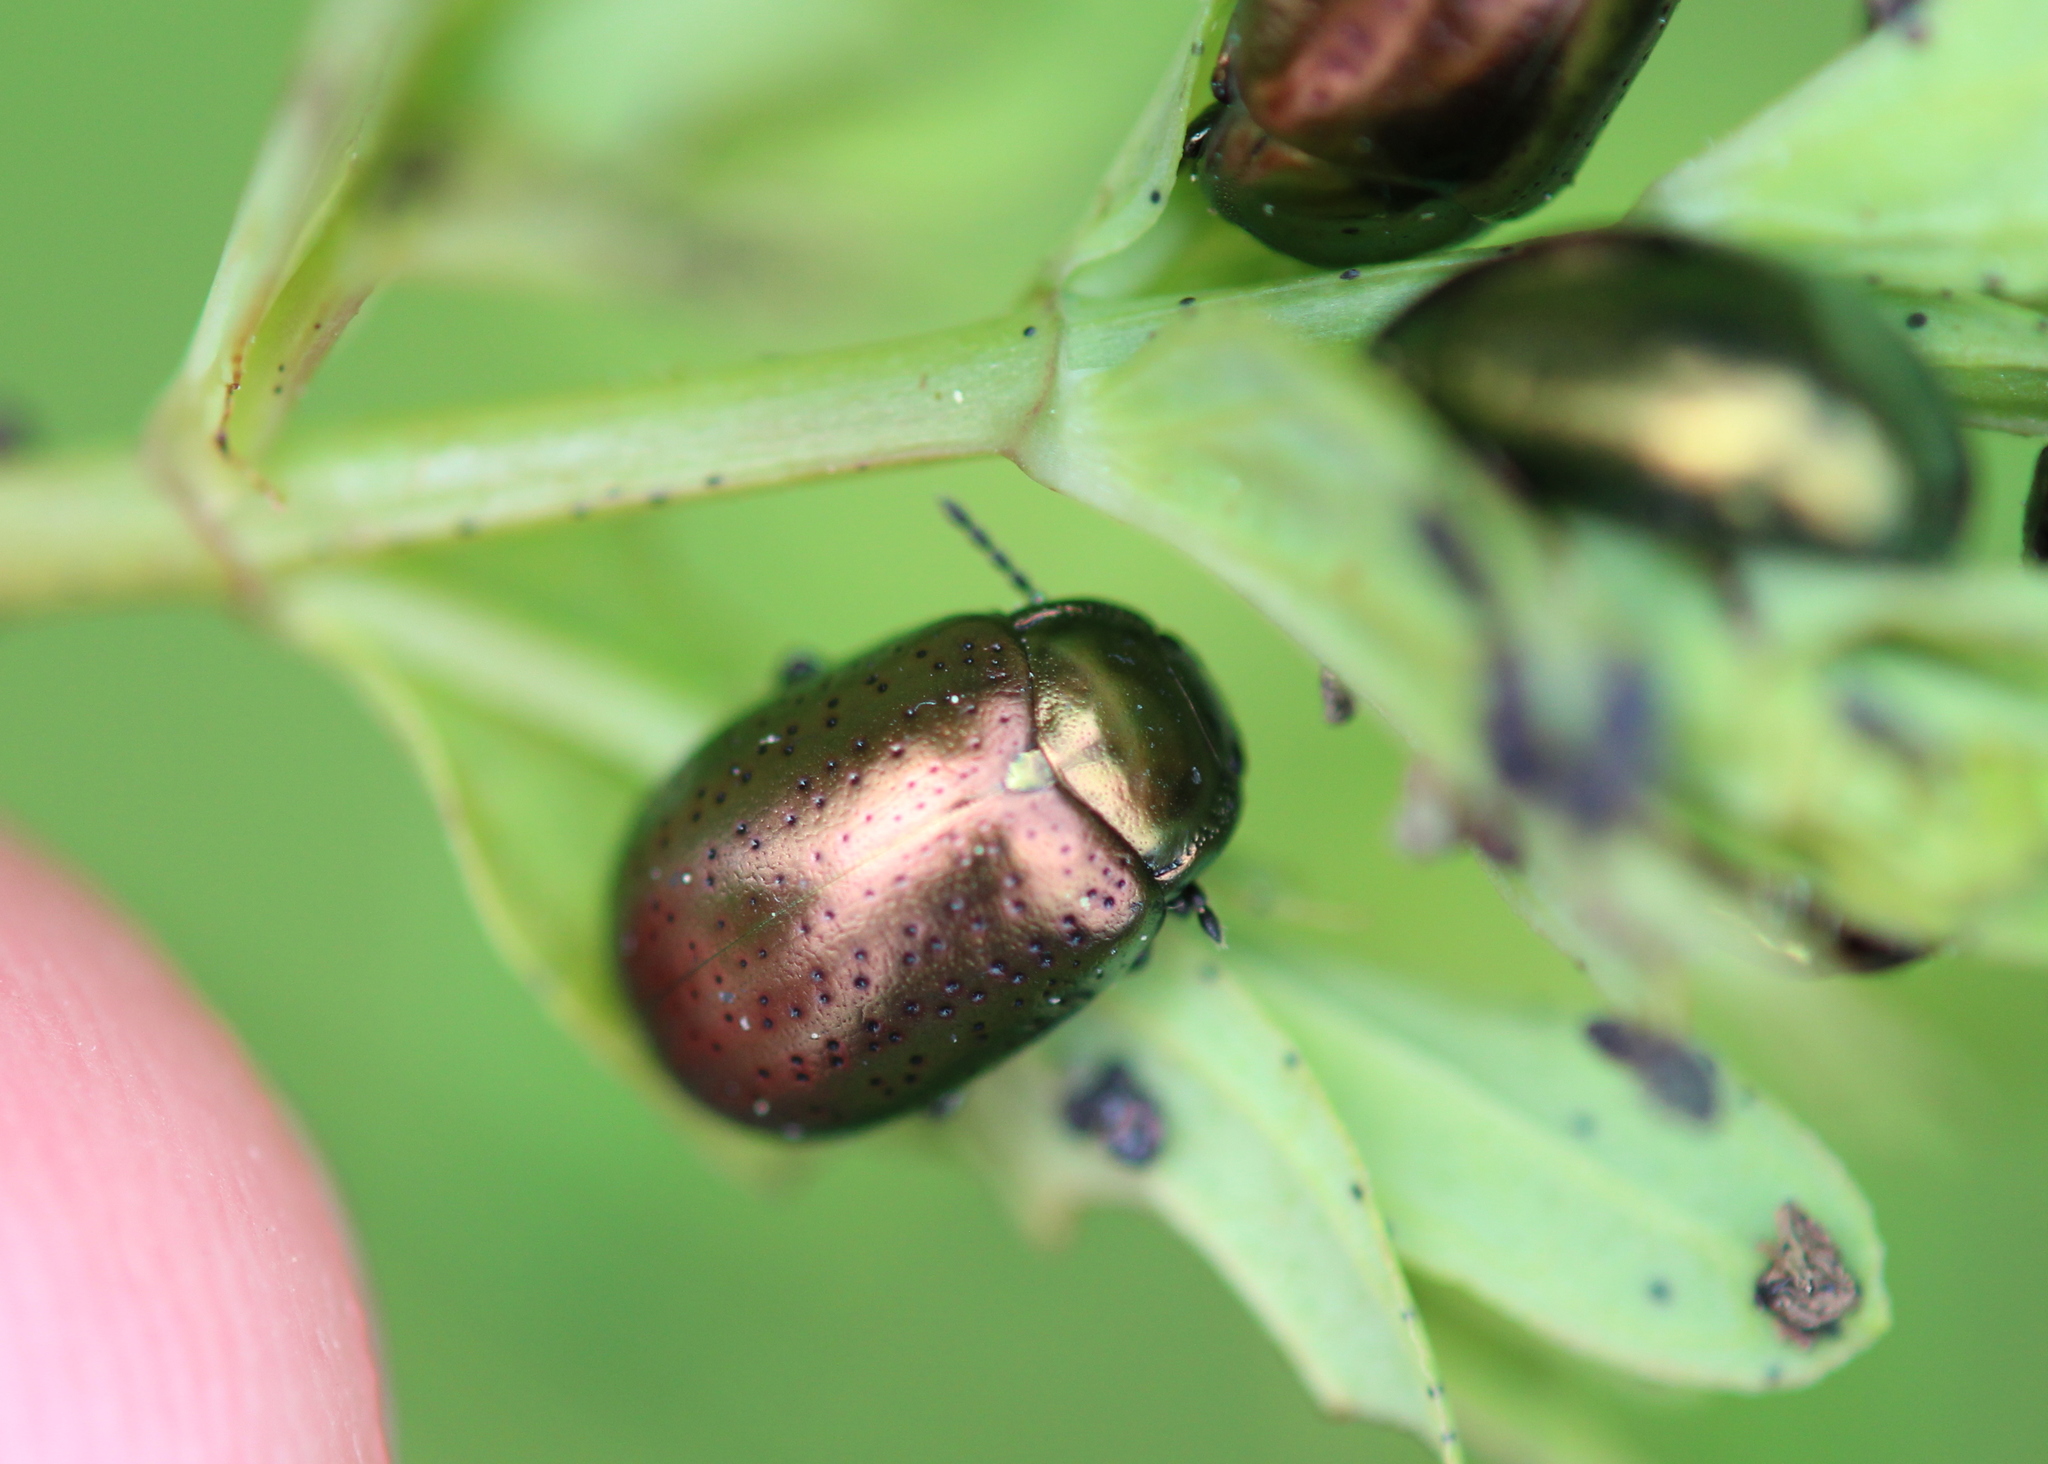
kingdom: Animalia
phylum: Arthropoda
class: Insecta
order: Coleoptera
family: Chrysomelidae
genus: Chrysolina
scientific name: Chrysolina hyperici
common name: St. johnswort beetle
